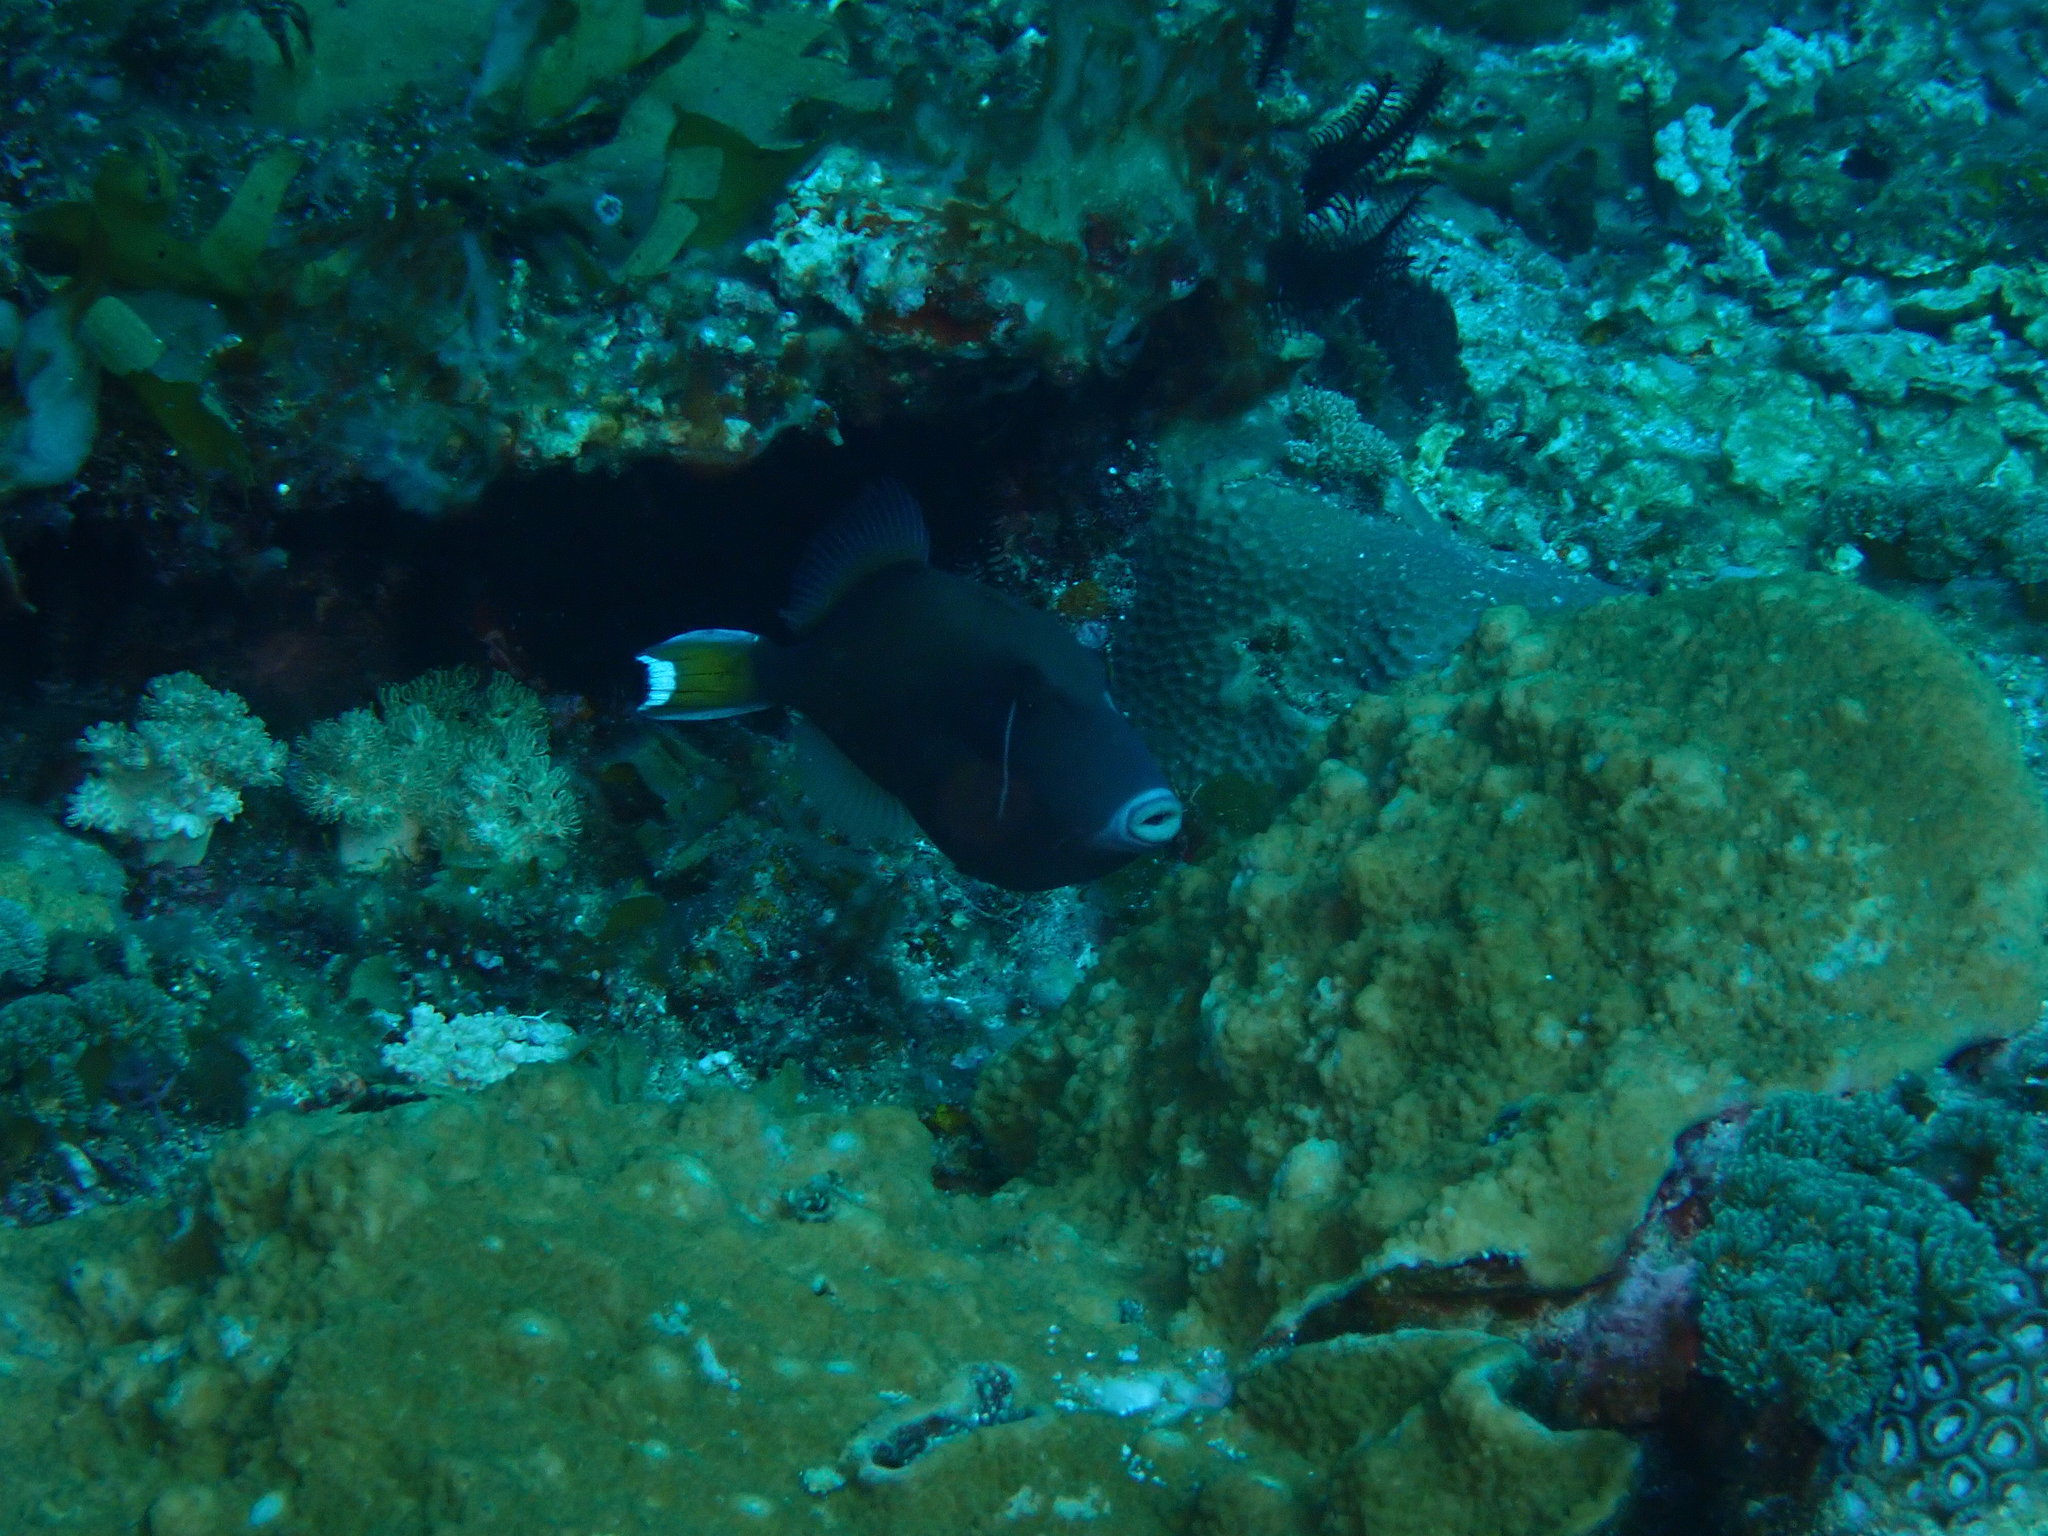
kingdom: Animalia
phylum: Chordata
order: Tetraodontiformes
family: Balistidae
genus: Sufflamen
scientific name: Sufflamen chrysopterum
